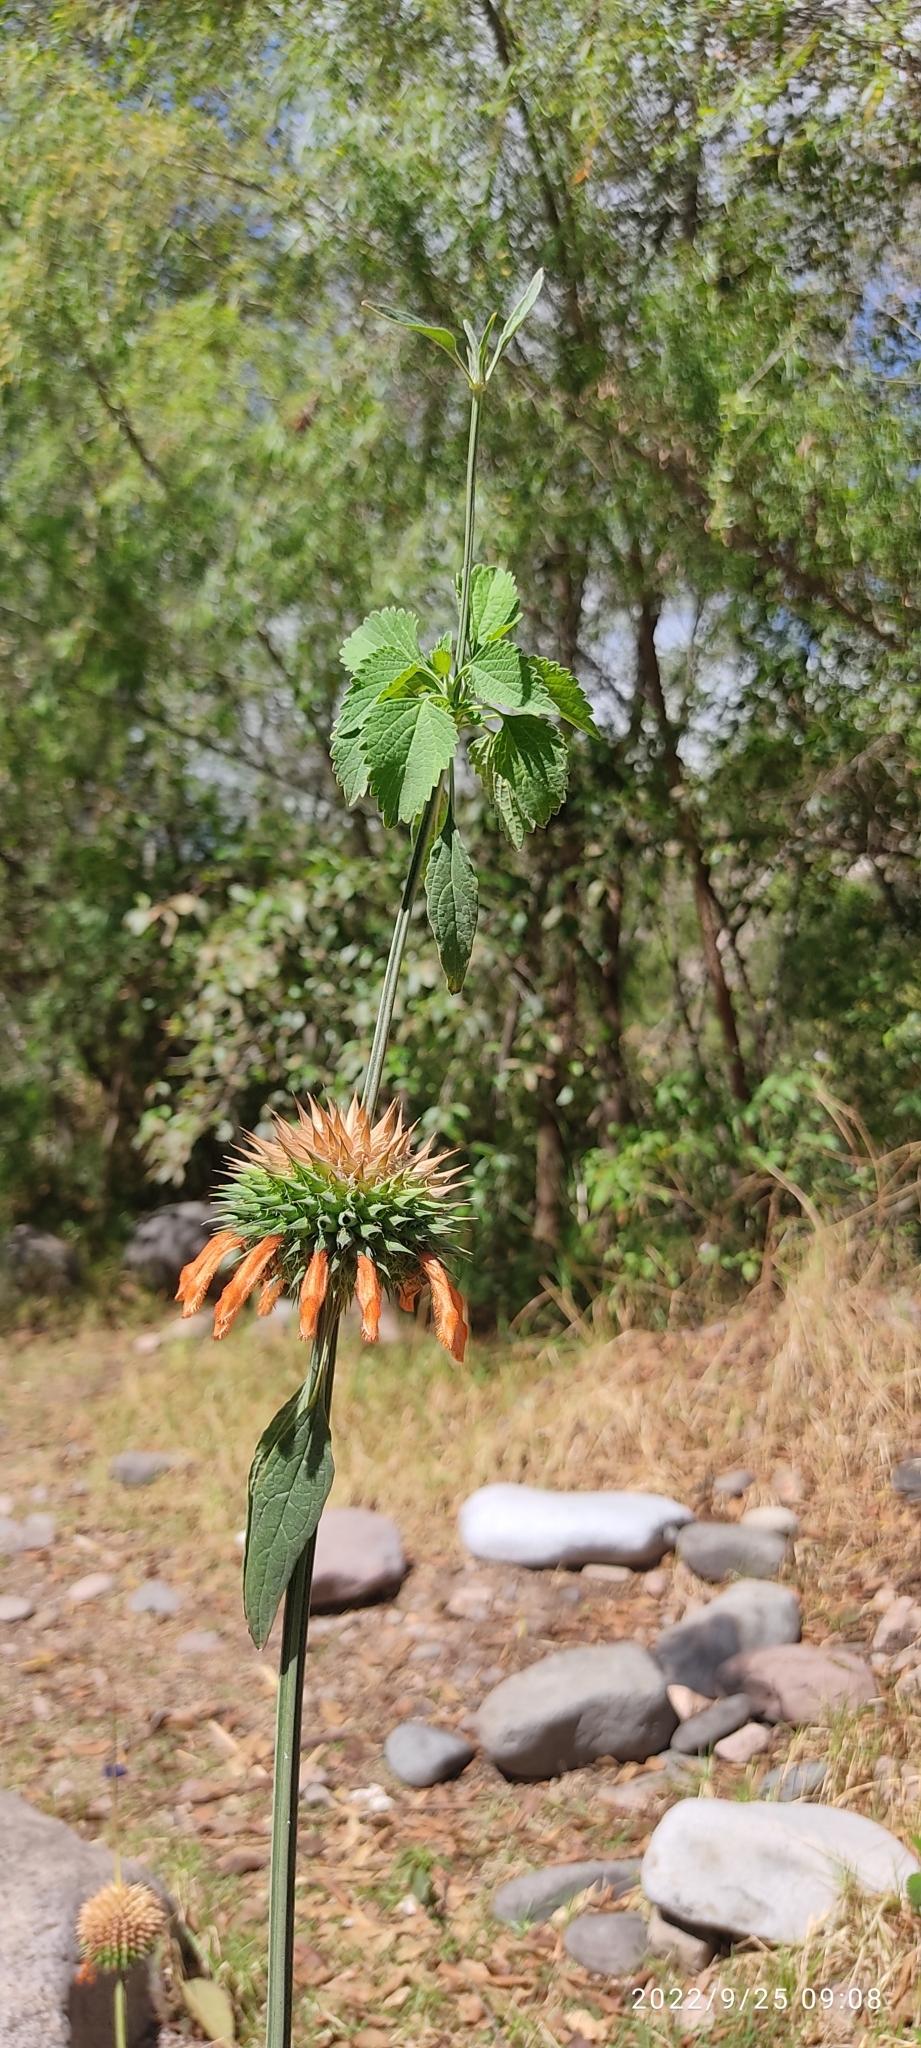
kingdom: Plantae
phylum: Tracheophyta
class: Magnoliopsida
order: Lamiales
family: Lamiaceae
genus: Leonotis
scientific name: Leonotis nepetifolia
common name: Christmas candlestick
